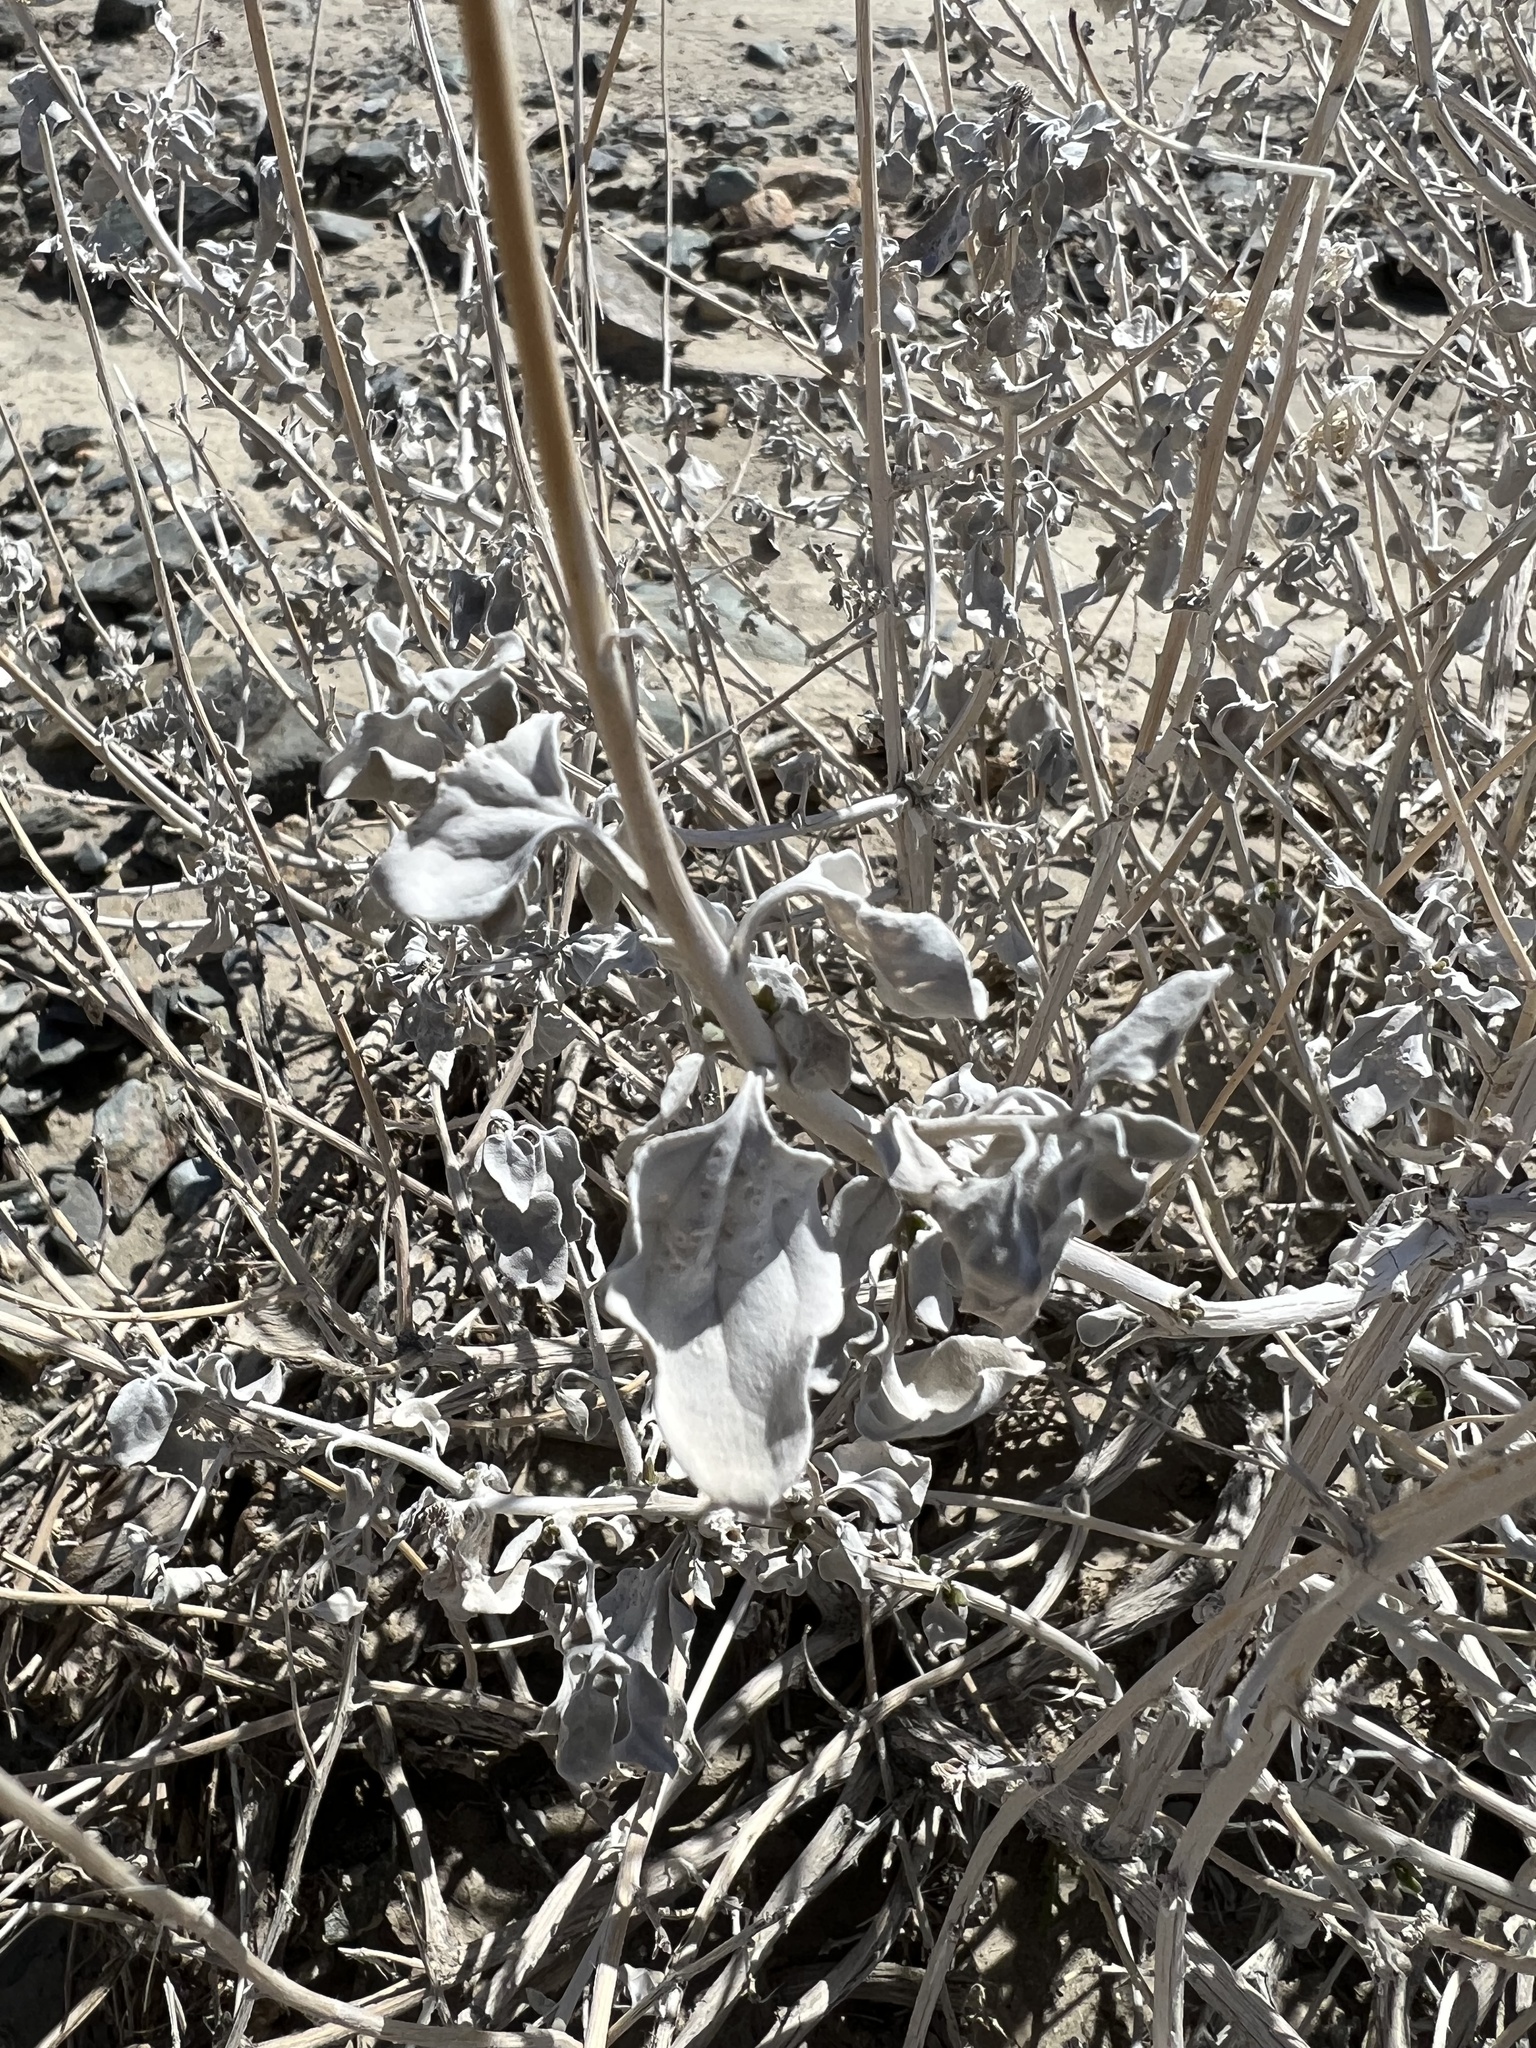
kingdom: Plantae
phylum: Tracheophyta
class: Magnoliopsida
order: Asterales
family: Asteraceae
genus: Encelia
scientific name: Encelia actoni
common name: Acton encelia
